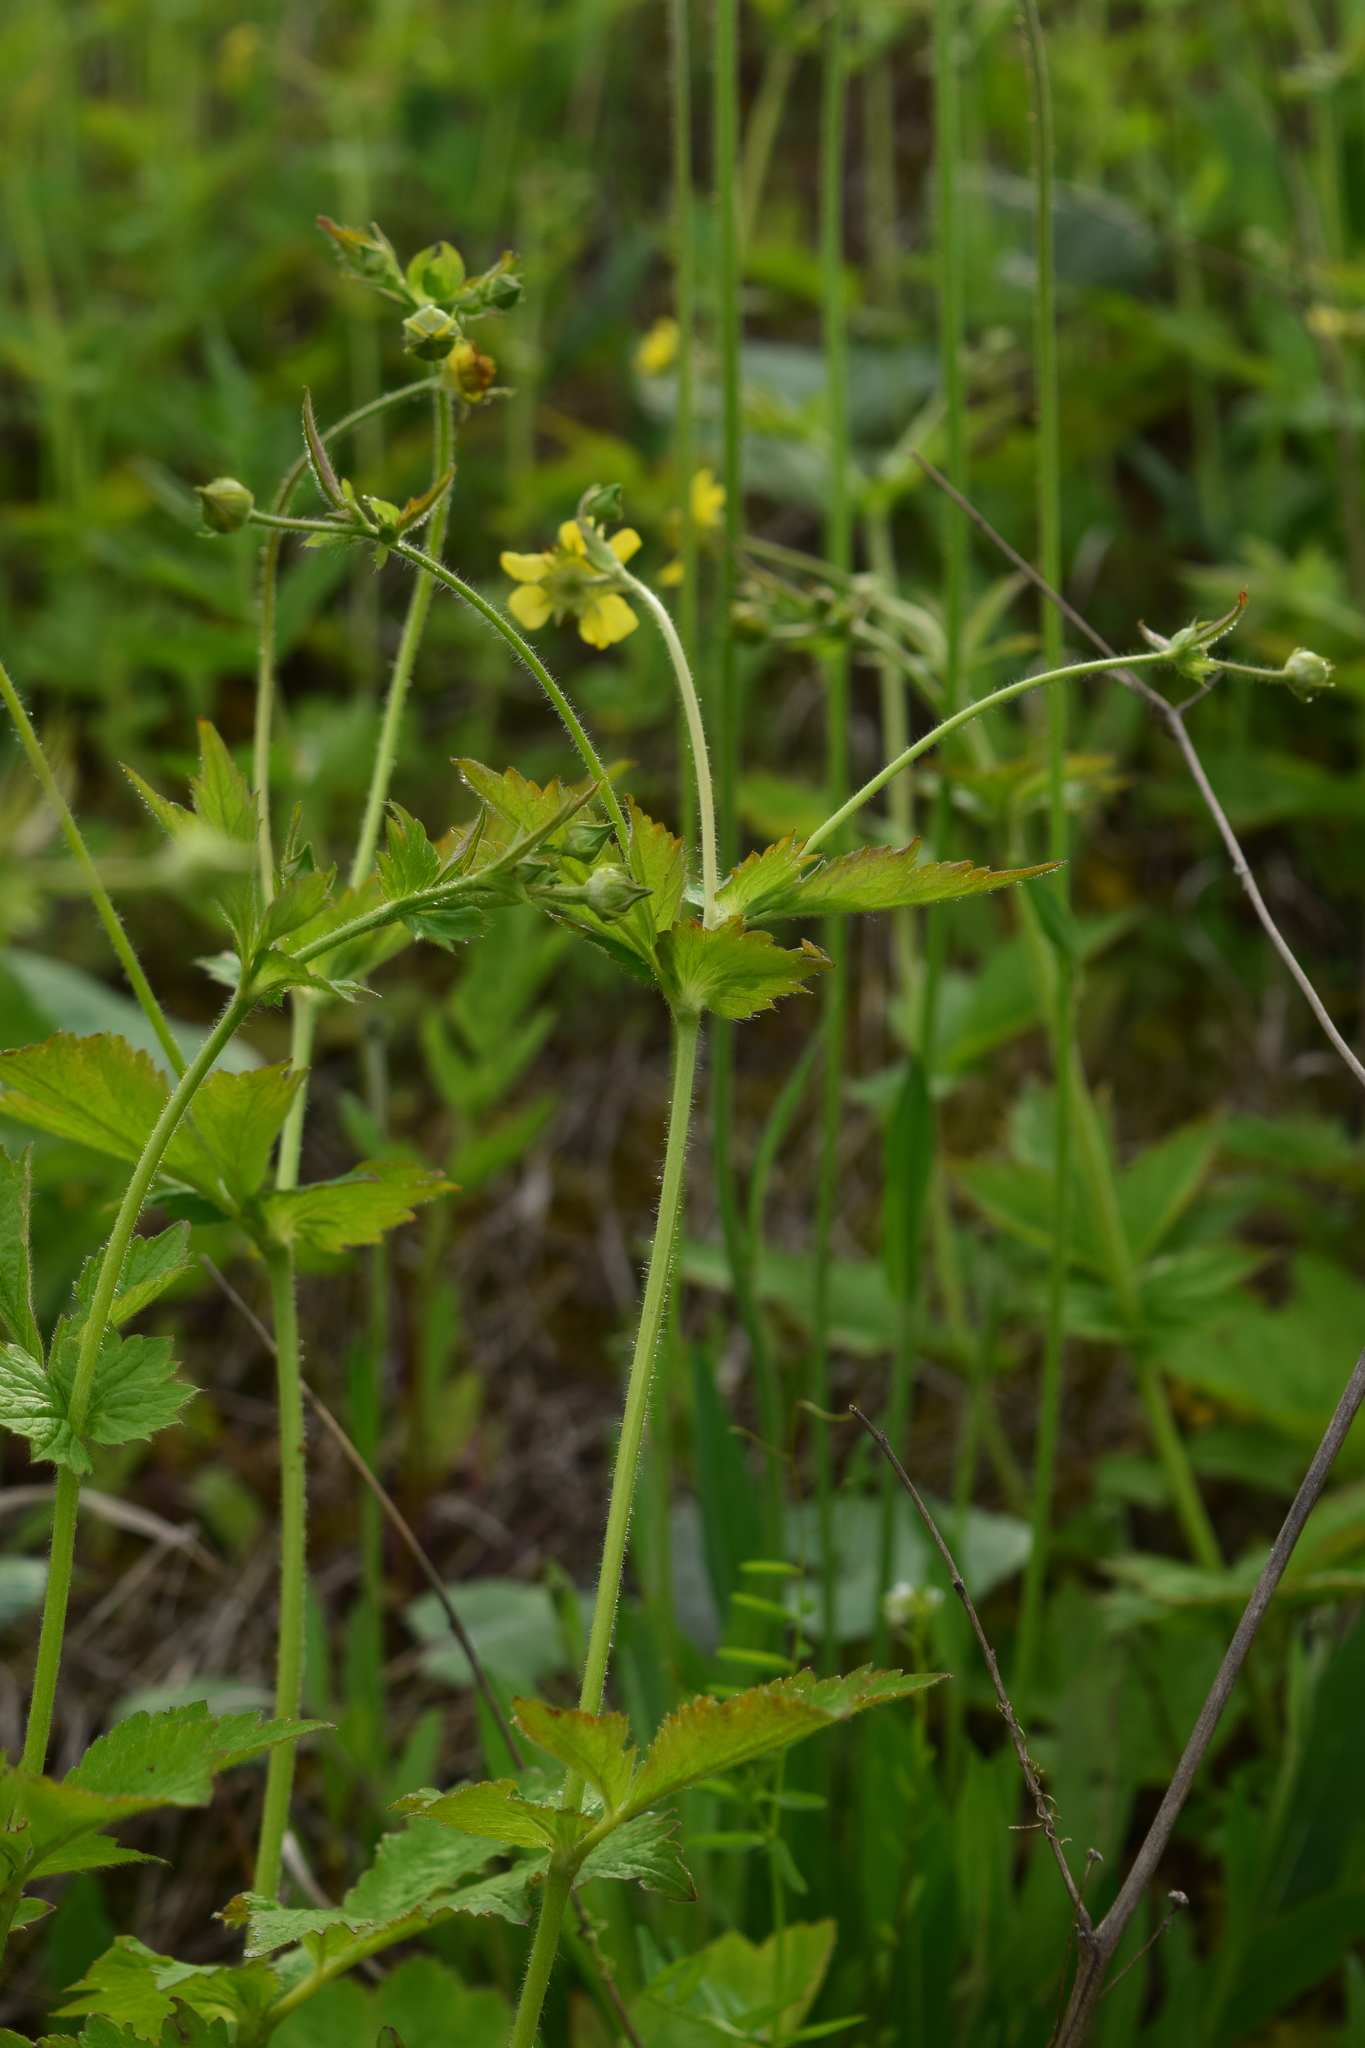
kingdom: Plantae
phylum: Tracheophyta
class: Magnoliopsida
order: Rosales
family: Rosaceae
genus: Geum
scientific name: Geum urbanum
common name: Wood avens
